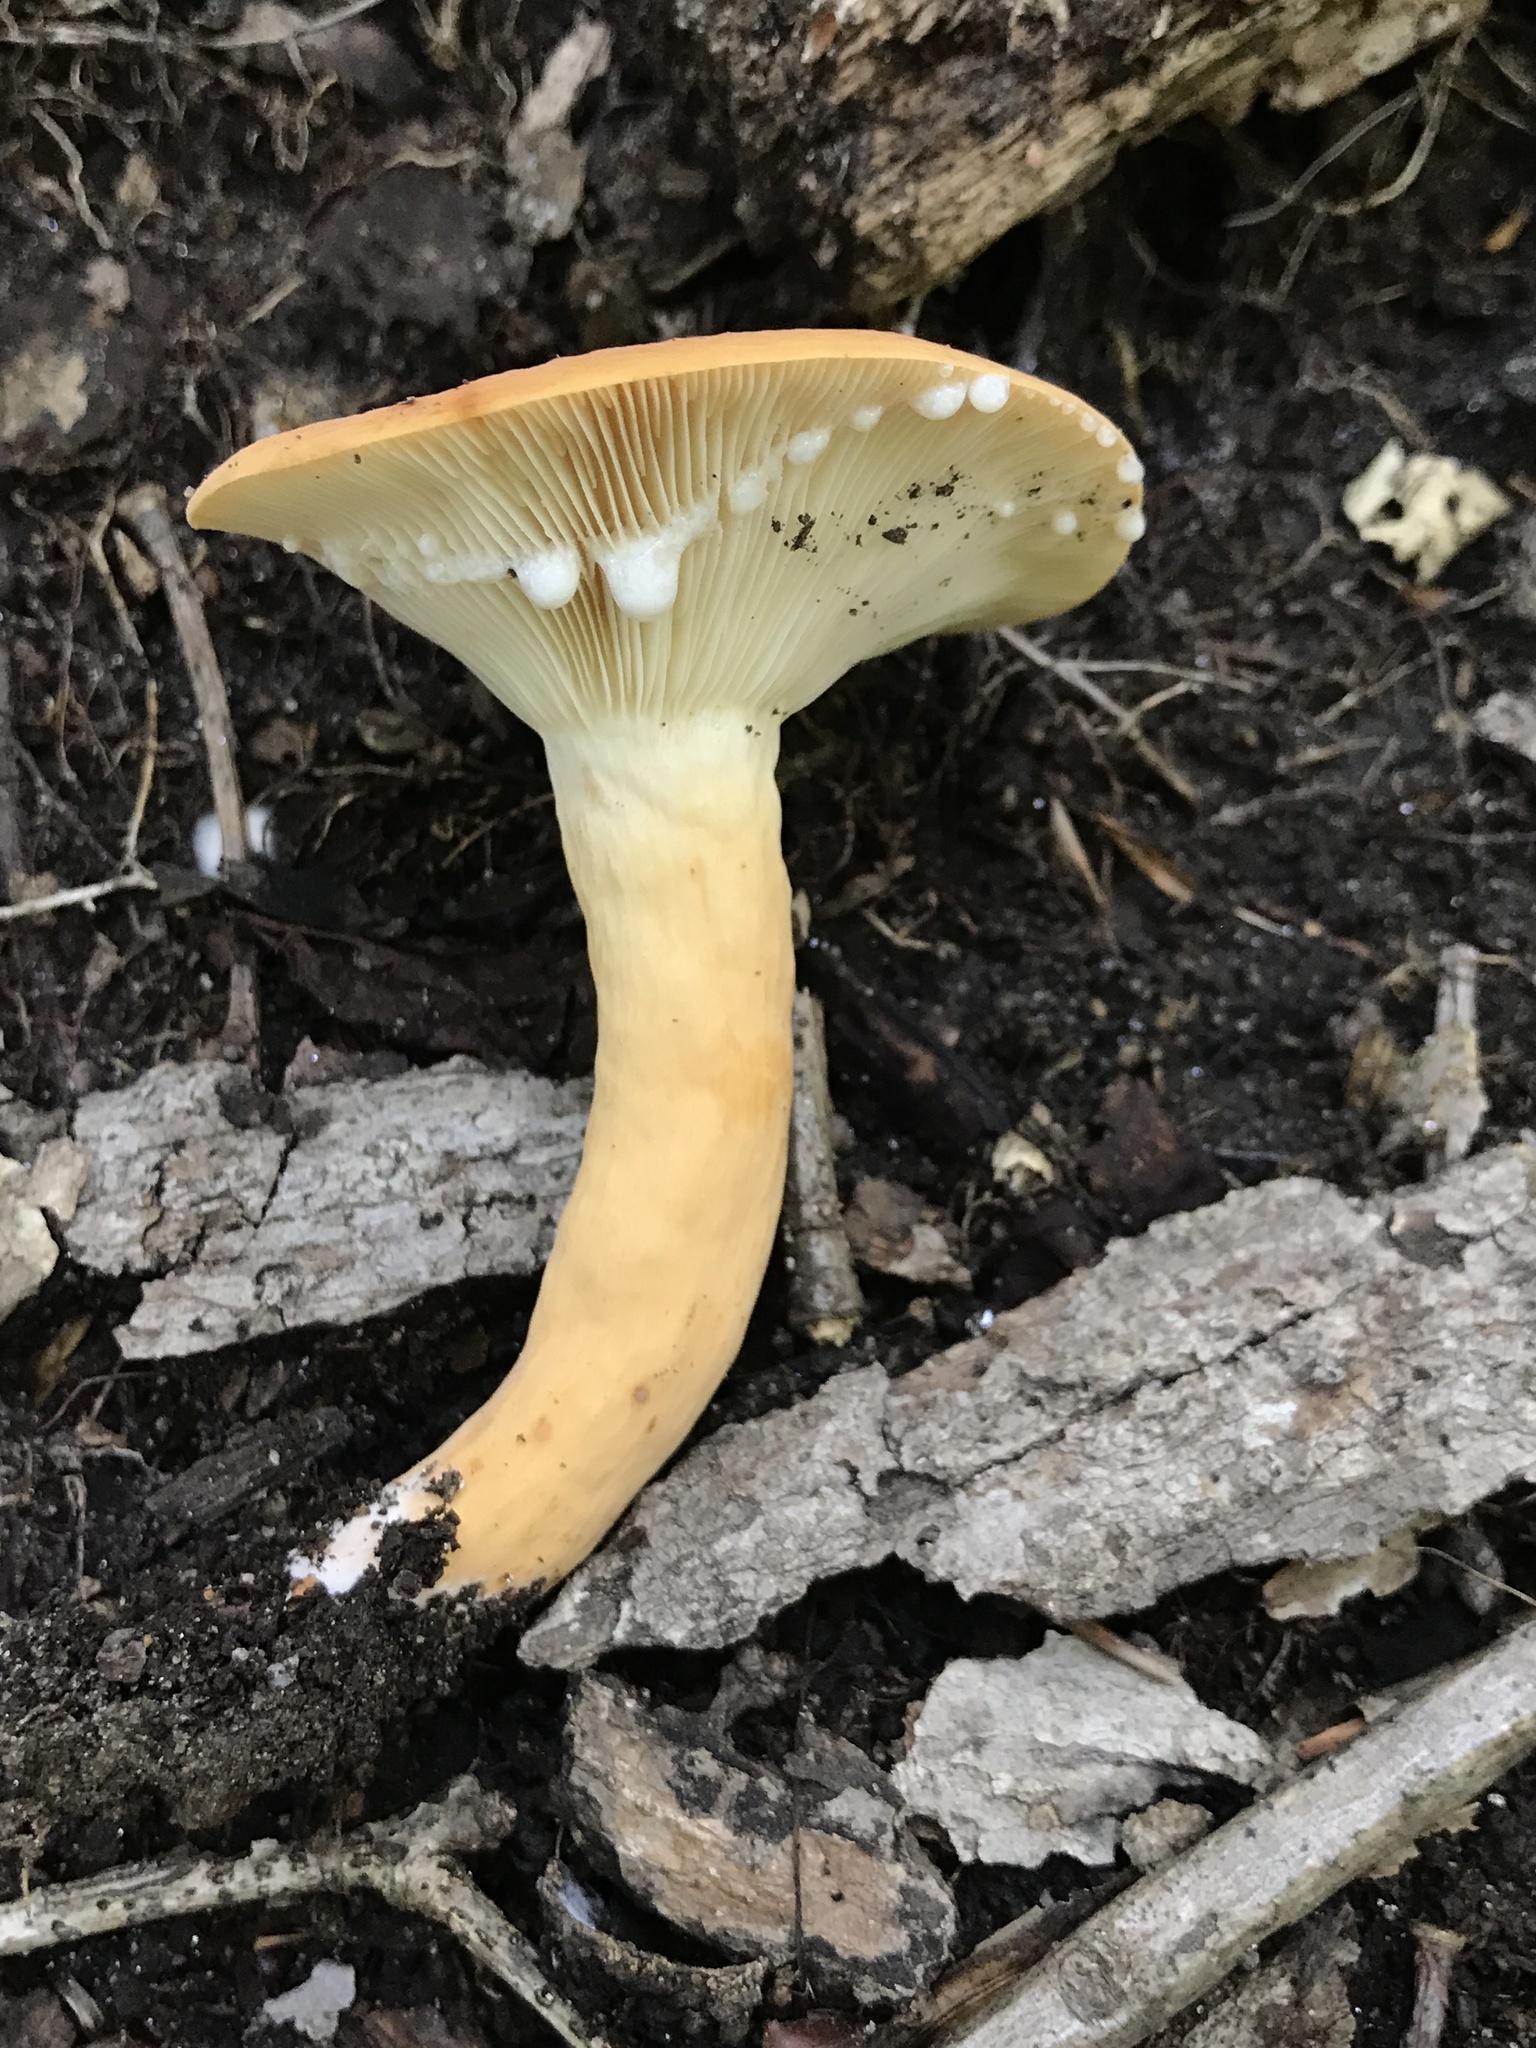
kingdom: Fungi
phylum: Basidiomycota
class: Agaricomycetes
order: Russulales
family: Russulaceae
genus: Lactifluus
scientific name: Lactifluus volemus
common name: Fishy milkcap
